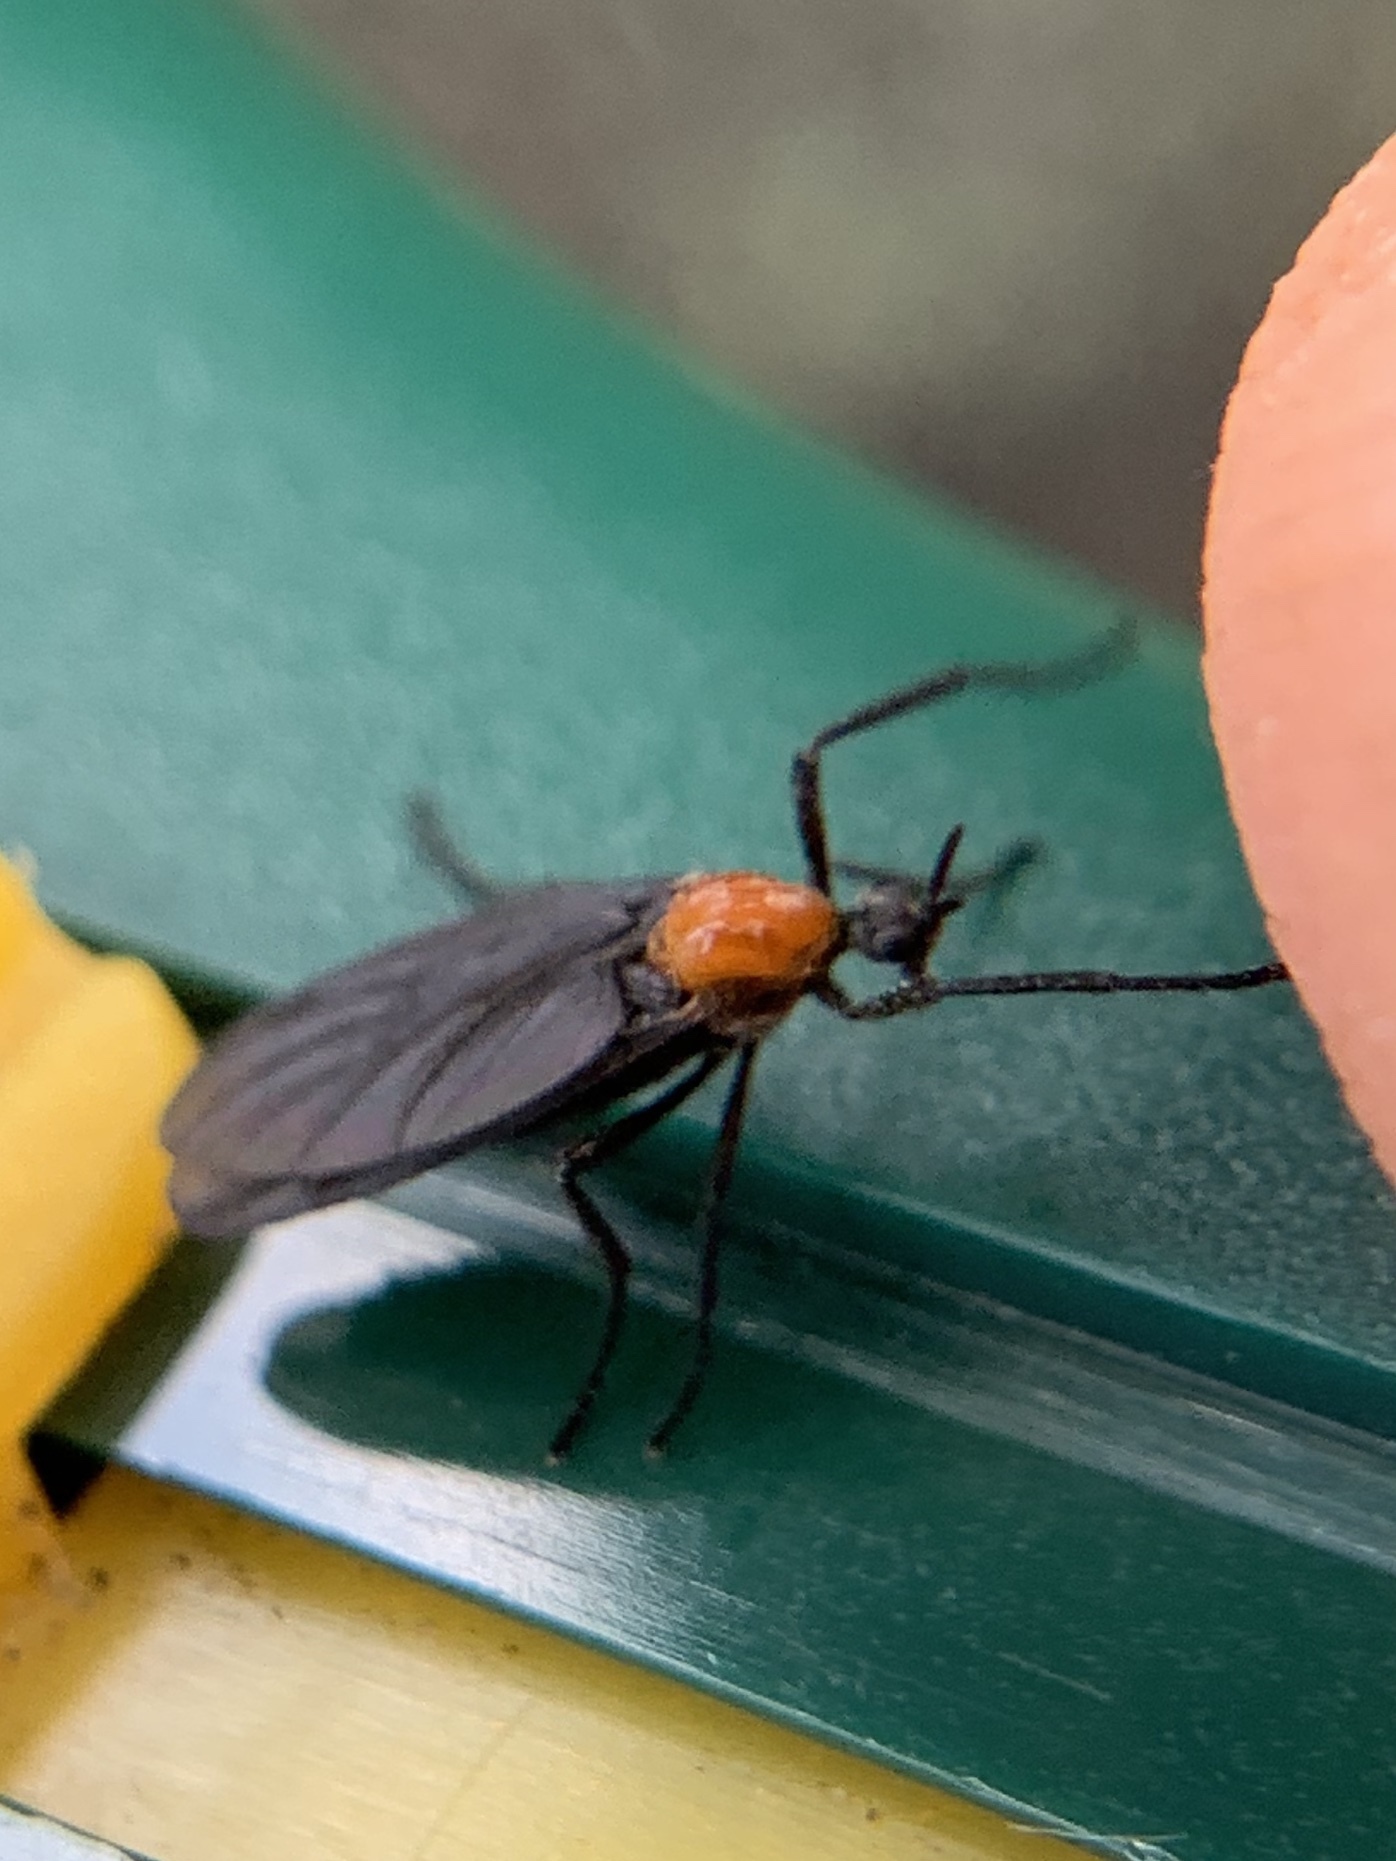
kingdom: Animalia
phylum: Arthropoda
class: Insecta
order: Diptera
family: Bibionidae
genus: Plecia
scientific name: Plecia nearctica
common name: March fly
